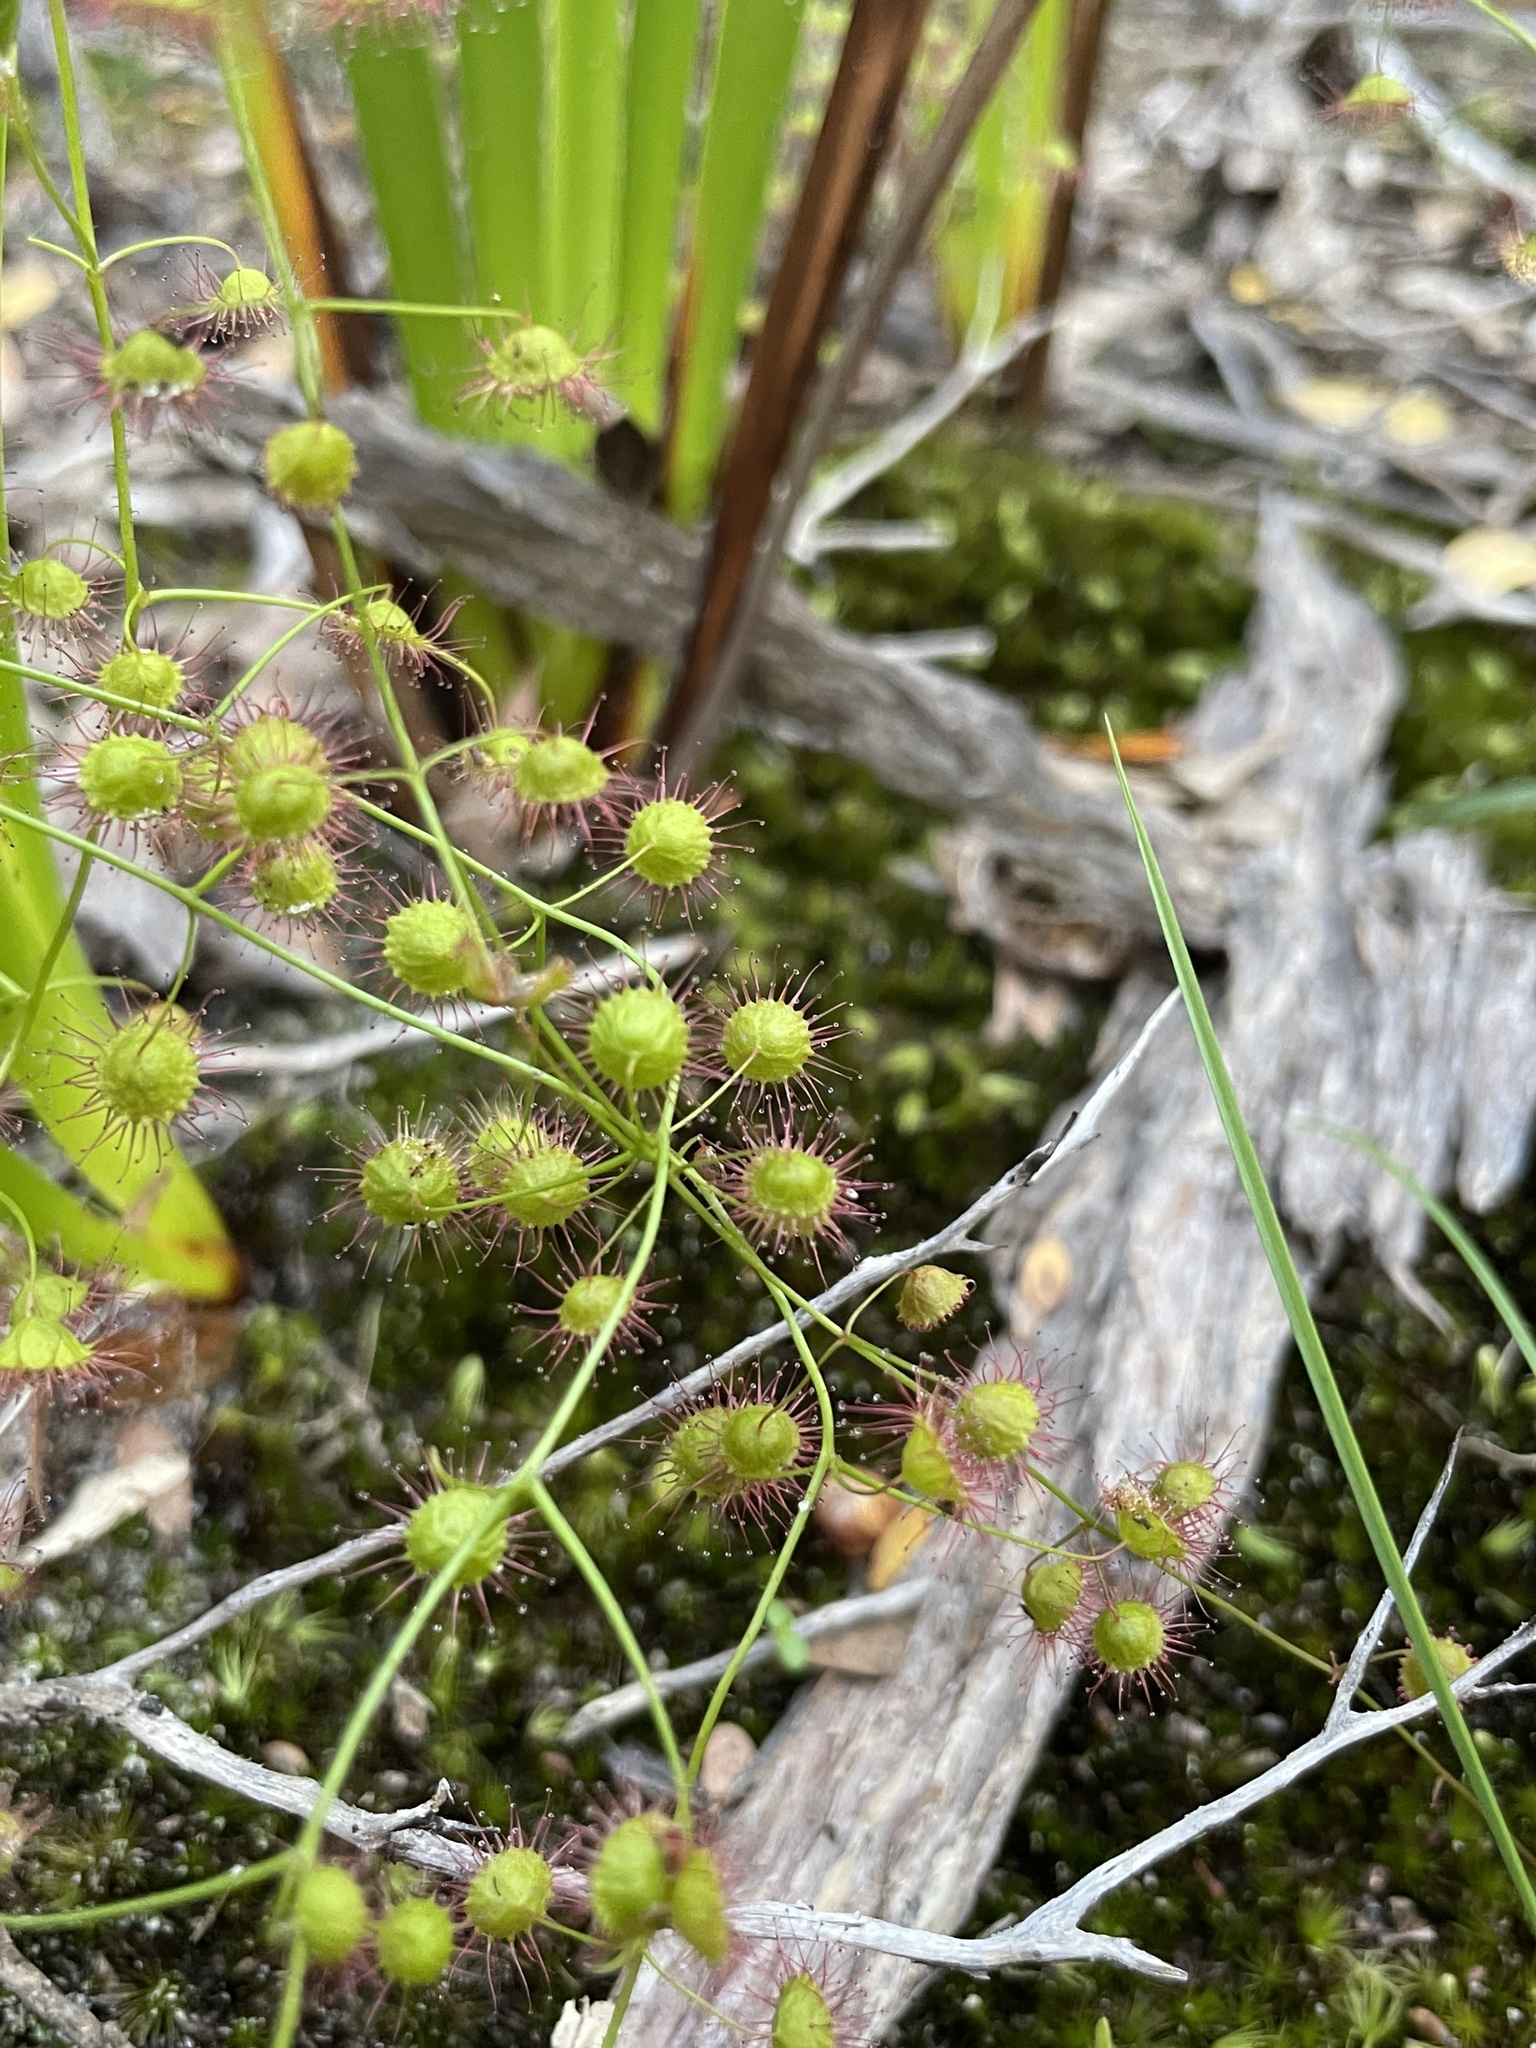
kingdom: Plantae
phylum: Tracheophyta
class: Magnoliopsida
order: Caryophyllales
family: Droseraceae
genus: Drosera
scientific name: Drosera planchonii
